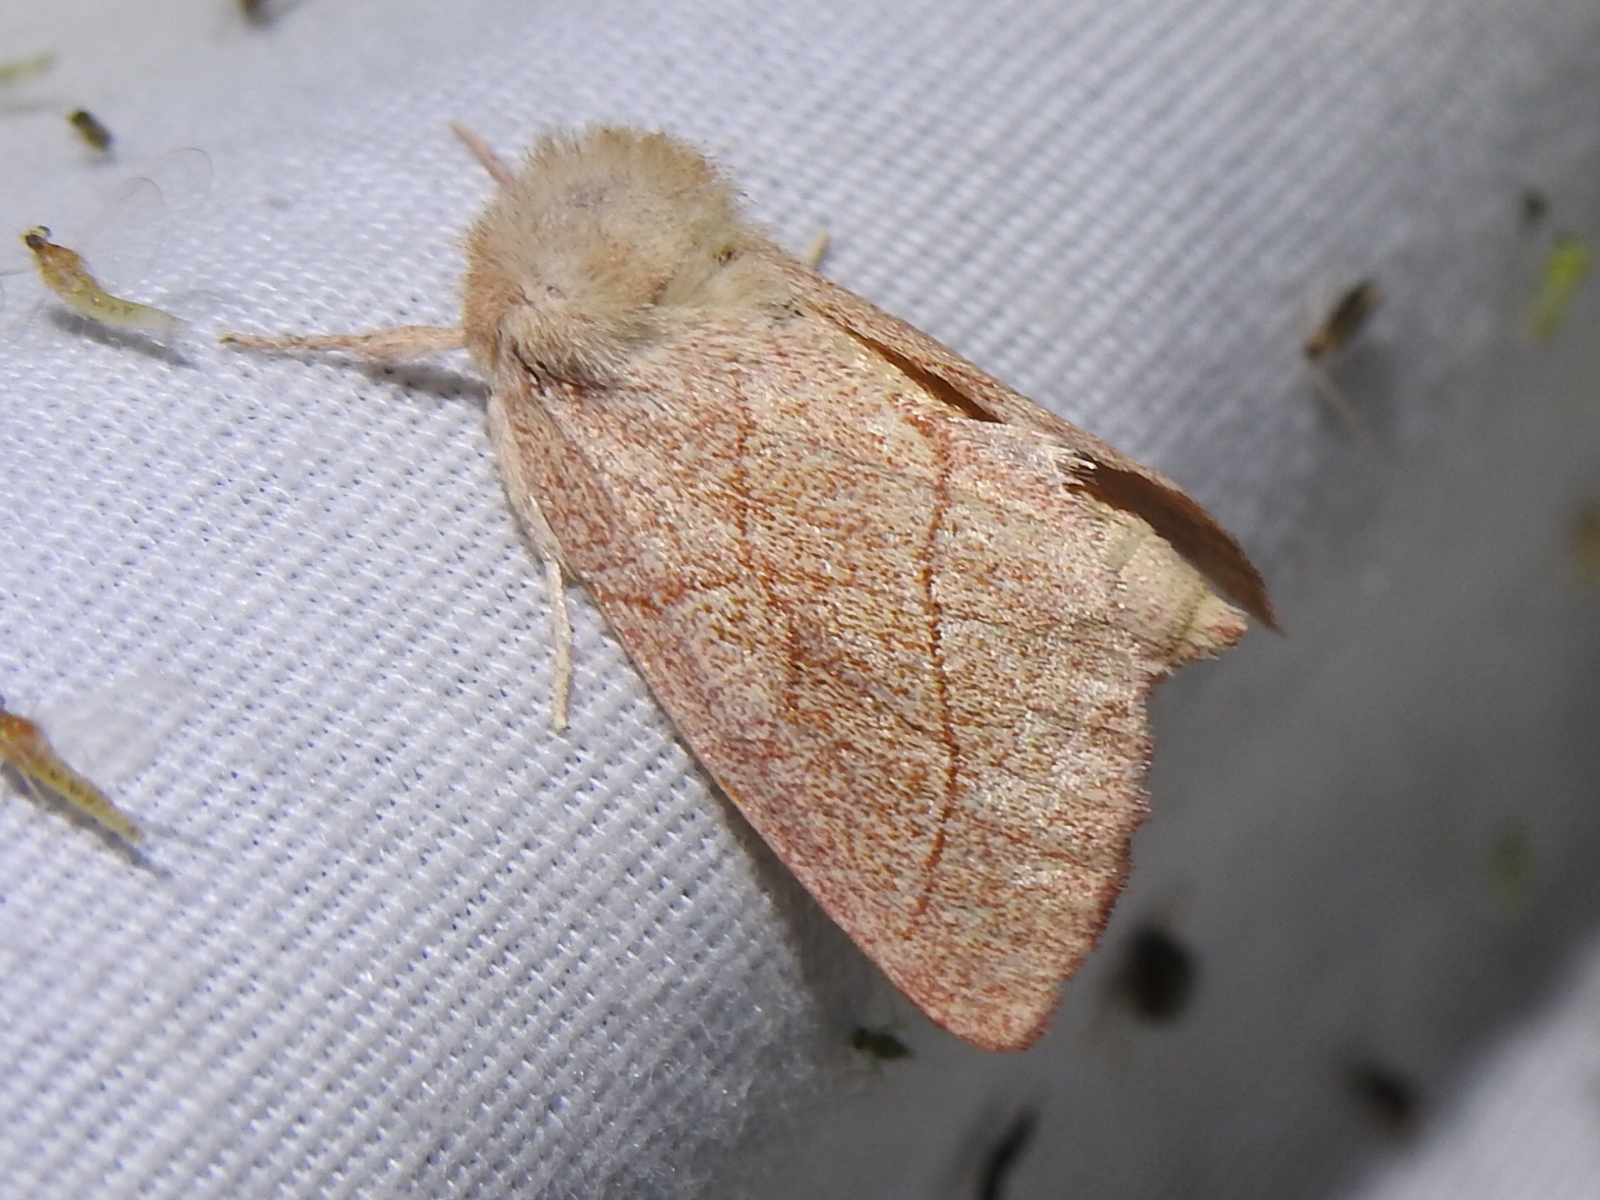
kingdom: Animalia
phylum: Arthropoda
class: Insecta
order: Lepidoptera
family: Notodontidae
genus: Hyparpax
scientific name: Hyparpax aurostriata
